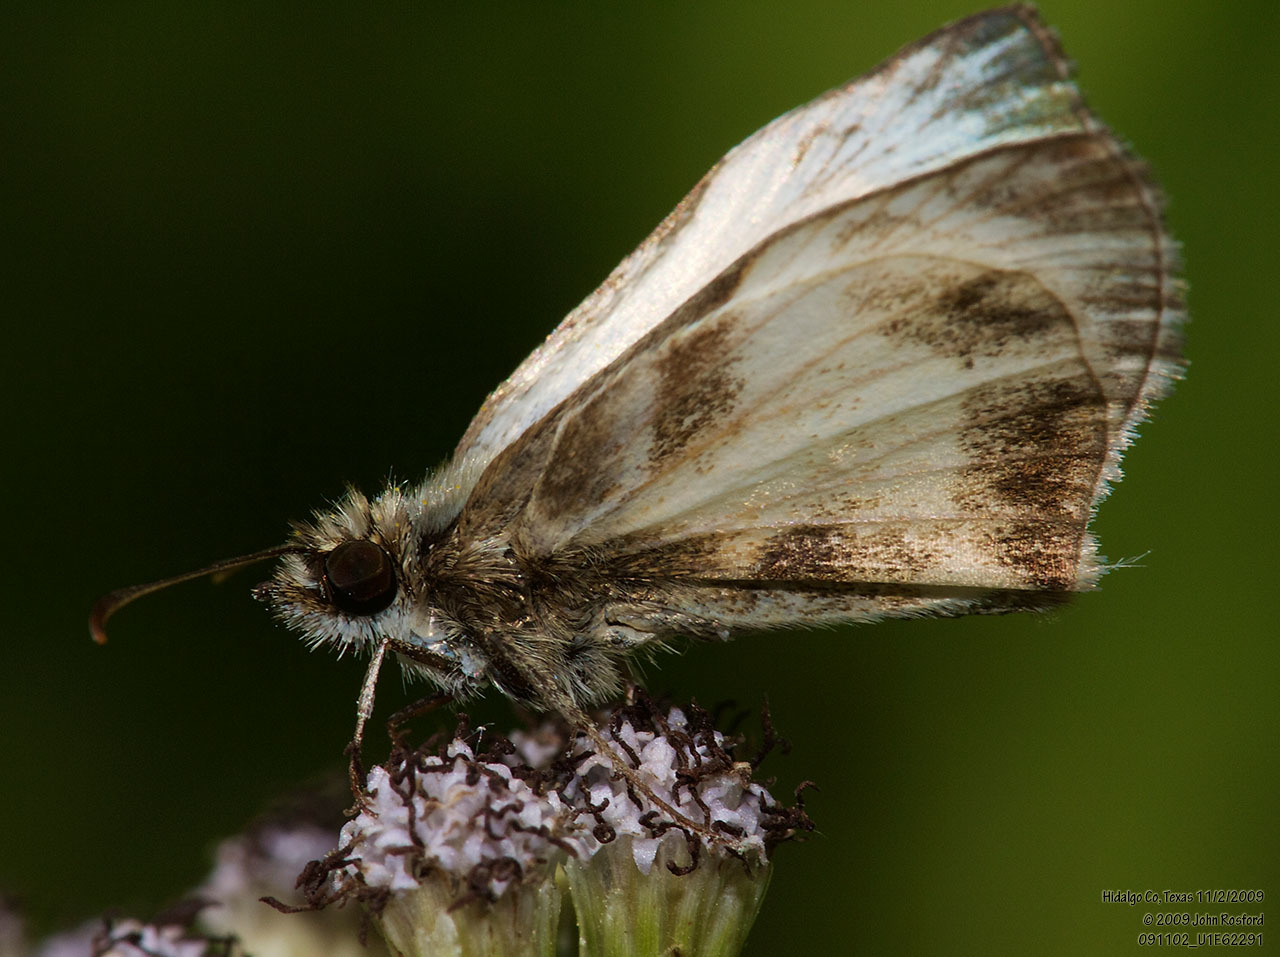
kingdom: Animalia
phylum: Arthropoda
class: Insecta
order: Lepidoptera
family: Hesperiidae
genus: Heliopetes
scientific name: Heliopetes macaira
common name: Turk's-cap white-skipper
